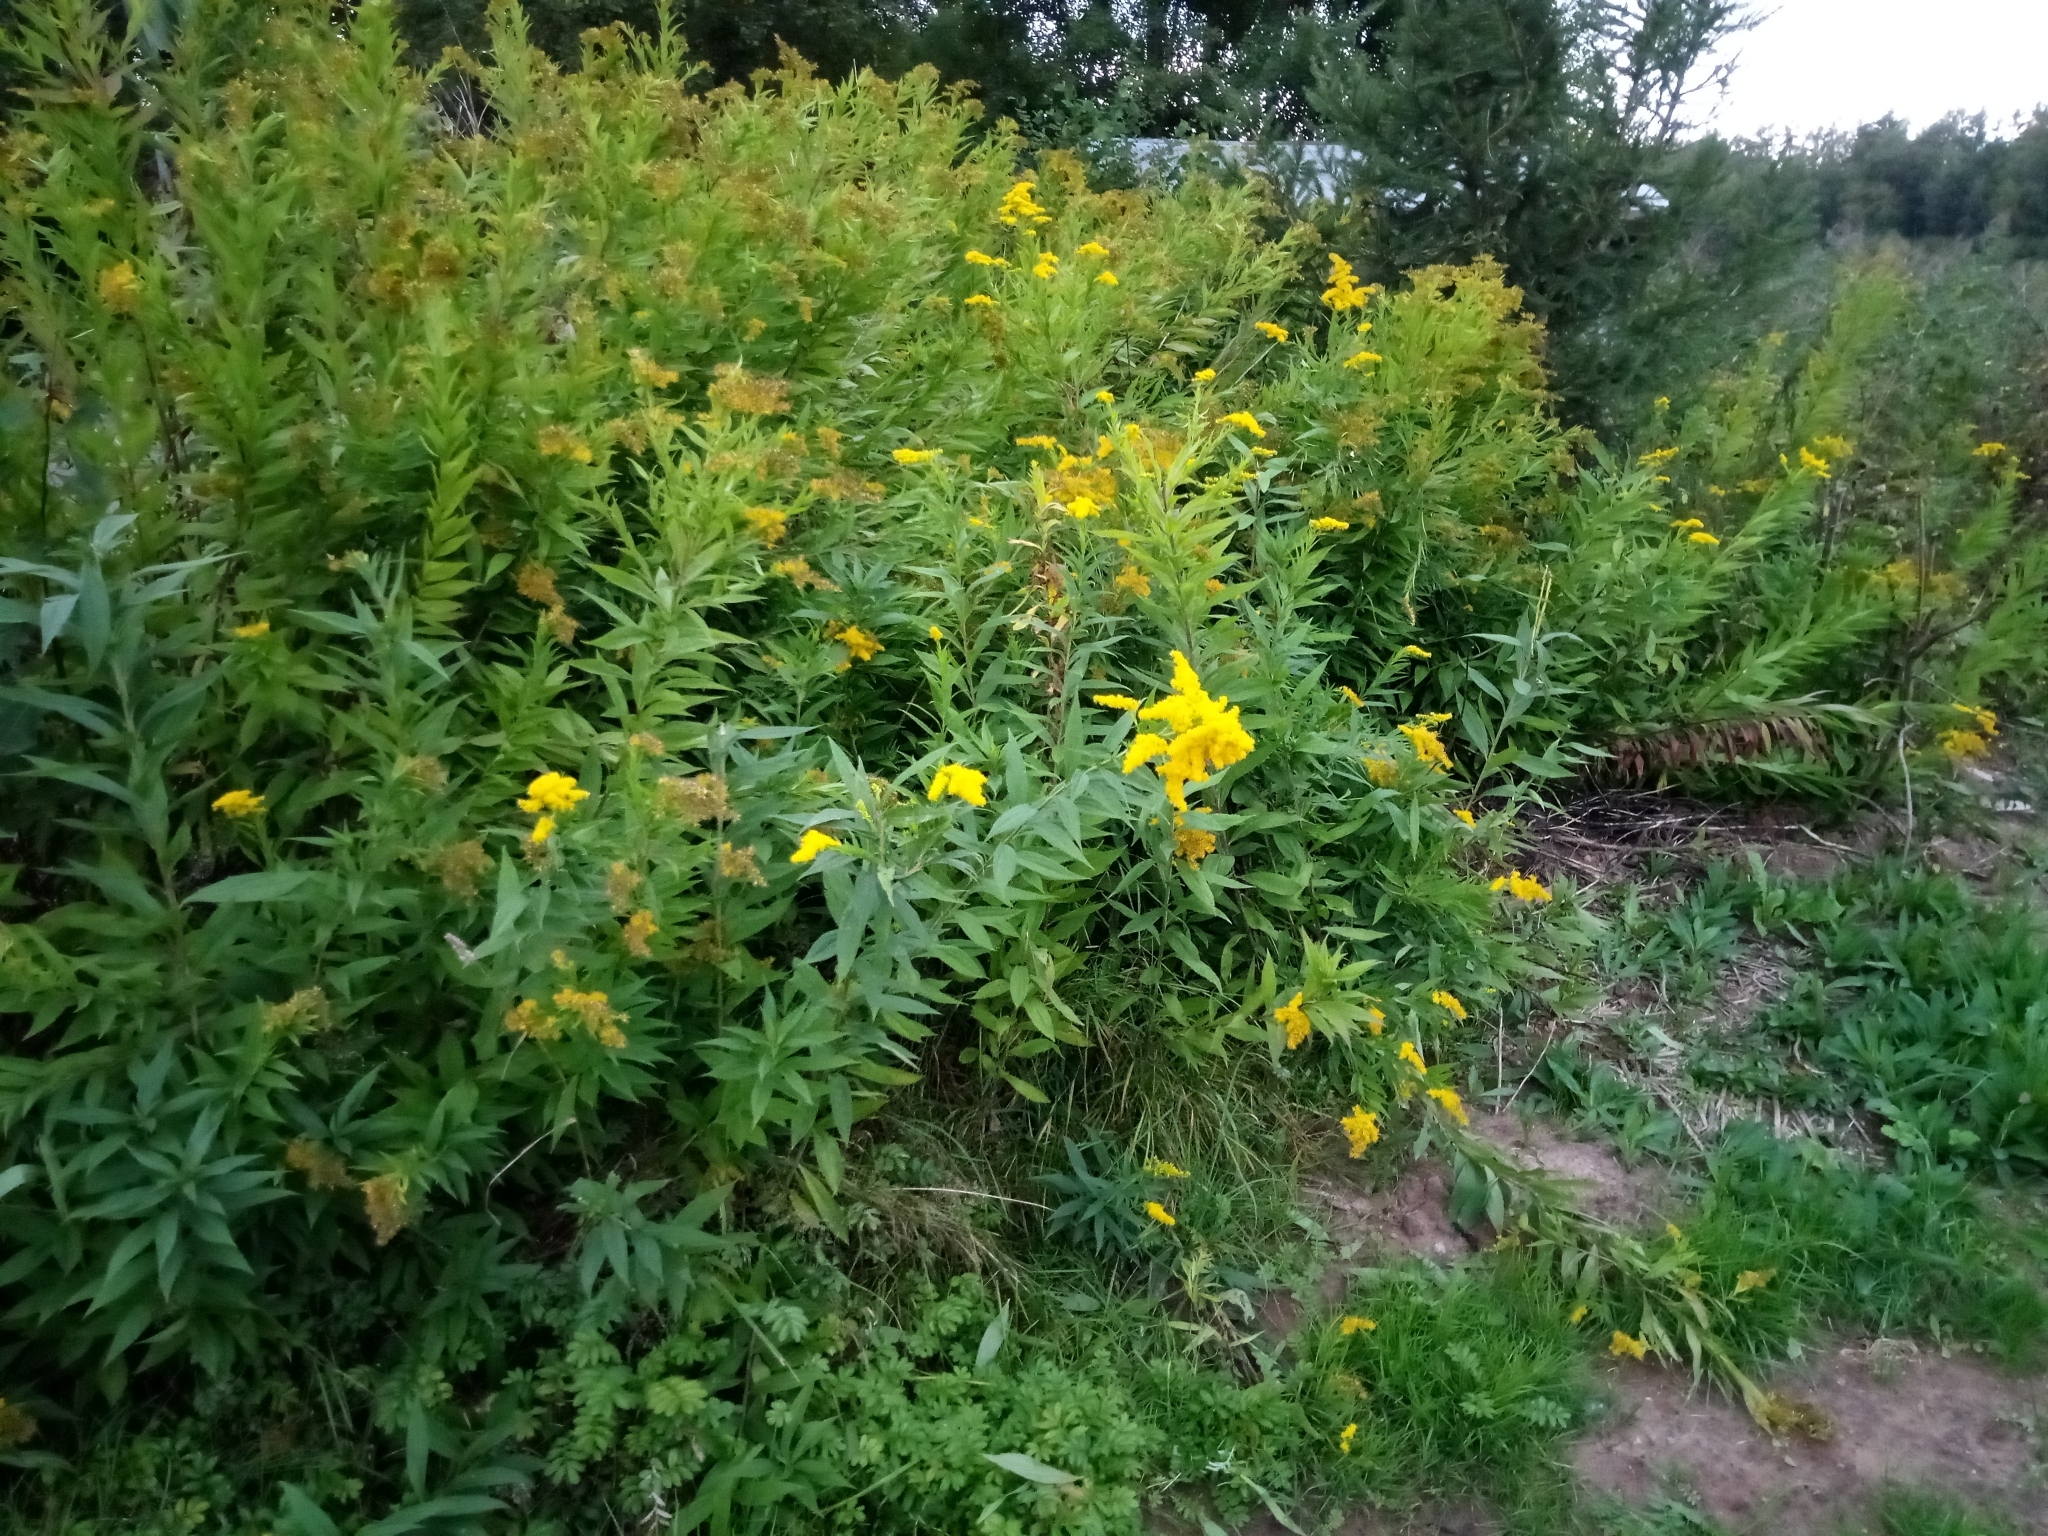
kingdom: Plantae
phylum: Tracheophyta
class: Magnoliopsida
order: Asterales
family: Asteraceae
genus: Solidago
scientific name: Solidago gigantea
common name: Giant goldenrod
